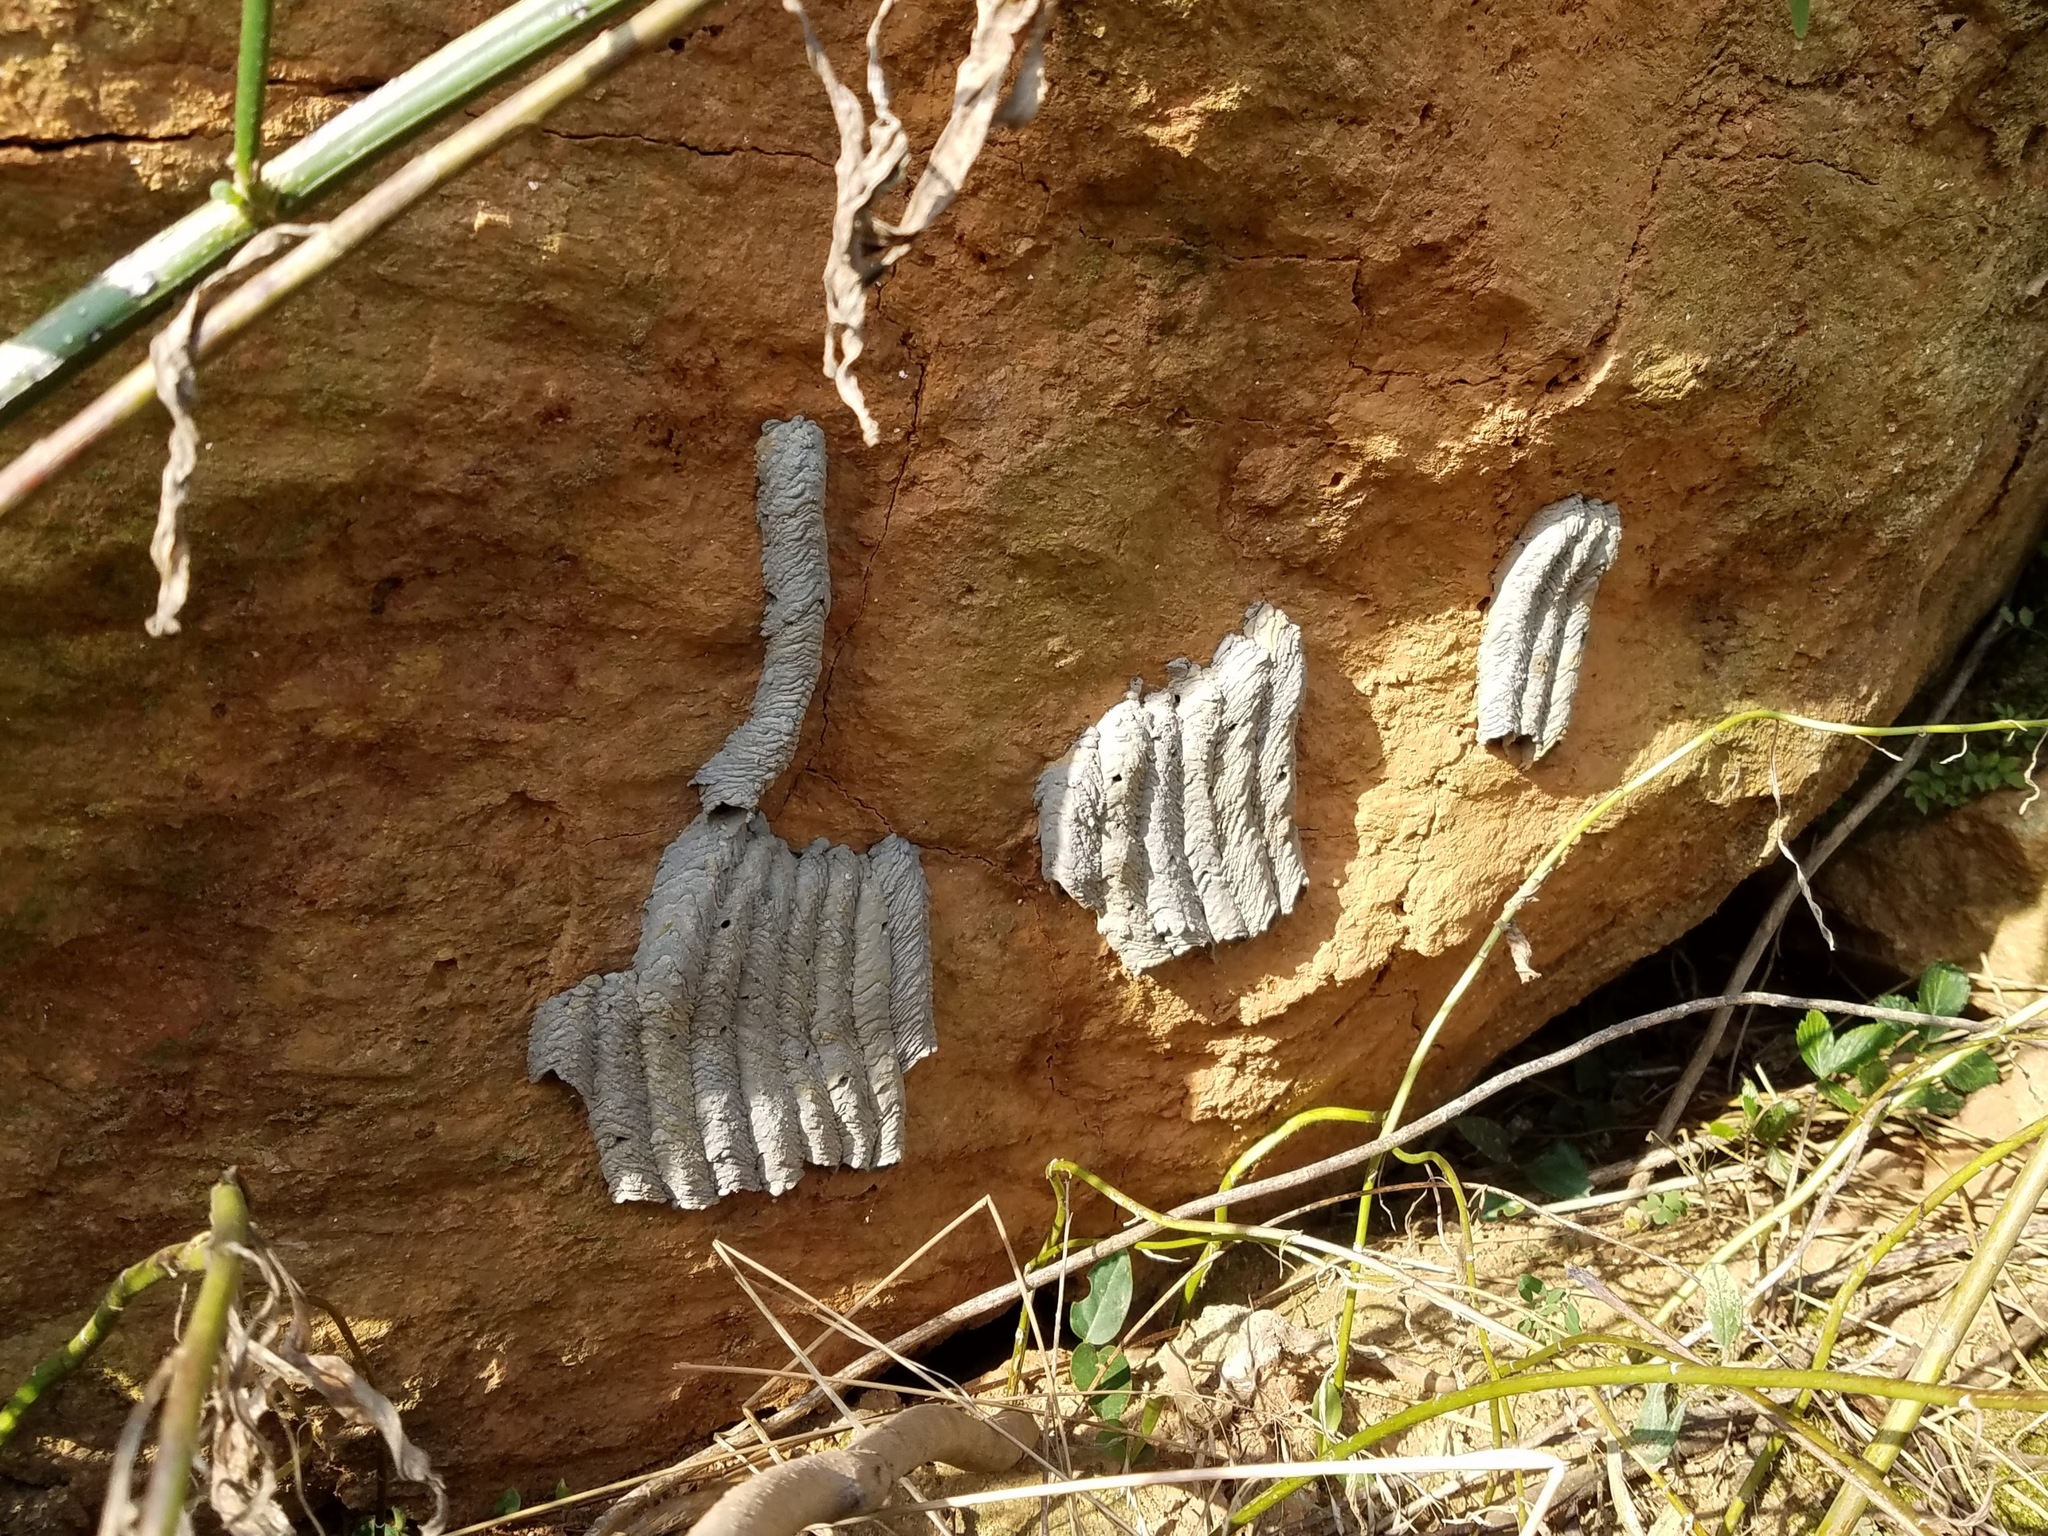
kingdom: Animalia
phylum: Arthropoda
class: Insecta
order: Hymenoptera
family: Crabronidae
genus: Trypoxylon
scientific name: Trypoxylon politum
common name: Organ-pipe mud-dauber wasp
